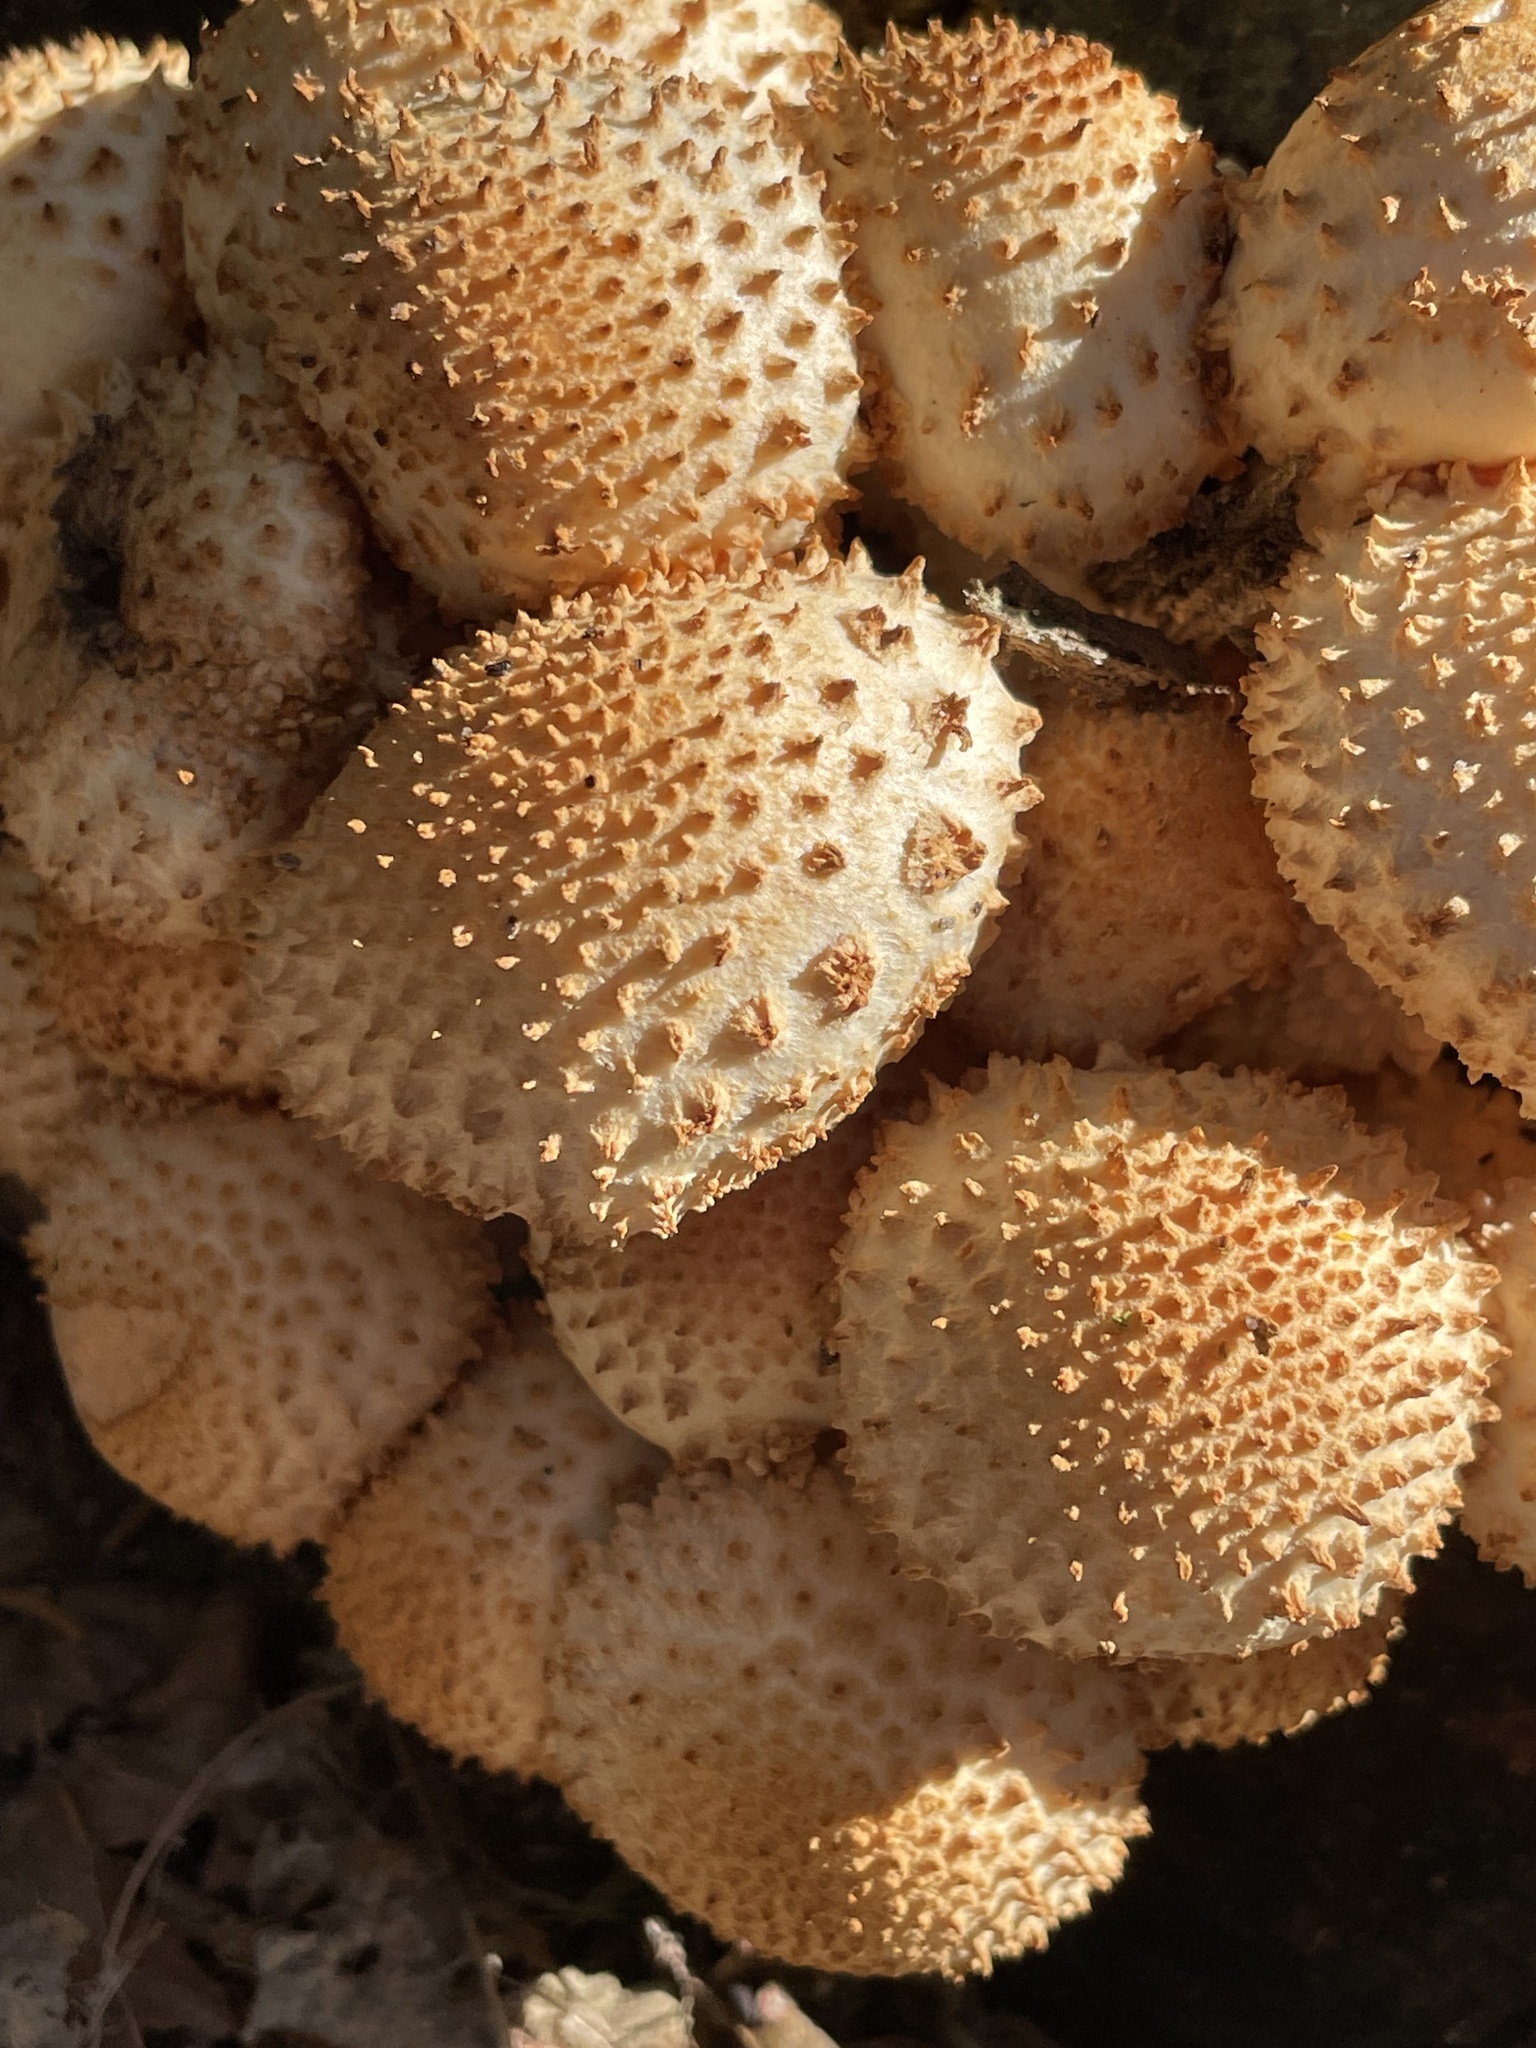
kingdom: Fungi
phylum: Basidiomycota
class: Agaricomycetes
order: Agaricales
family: Strophariaceae
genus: Pholiota
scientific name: Pholiota squarrosa
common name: Shaggy pholiota
